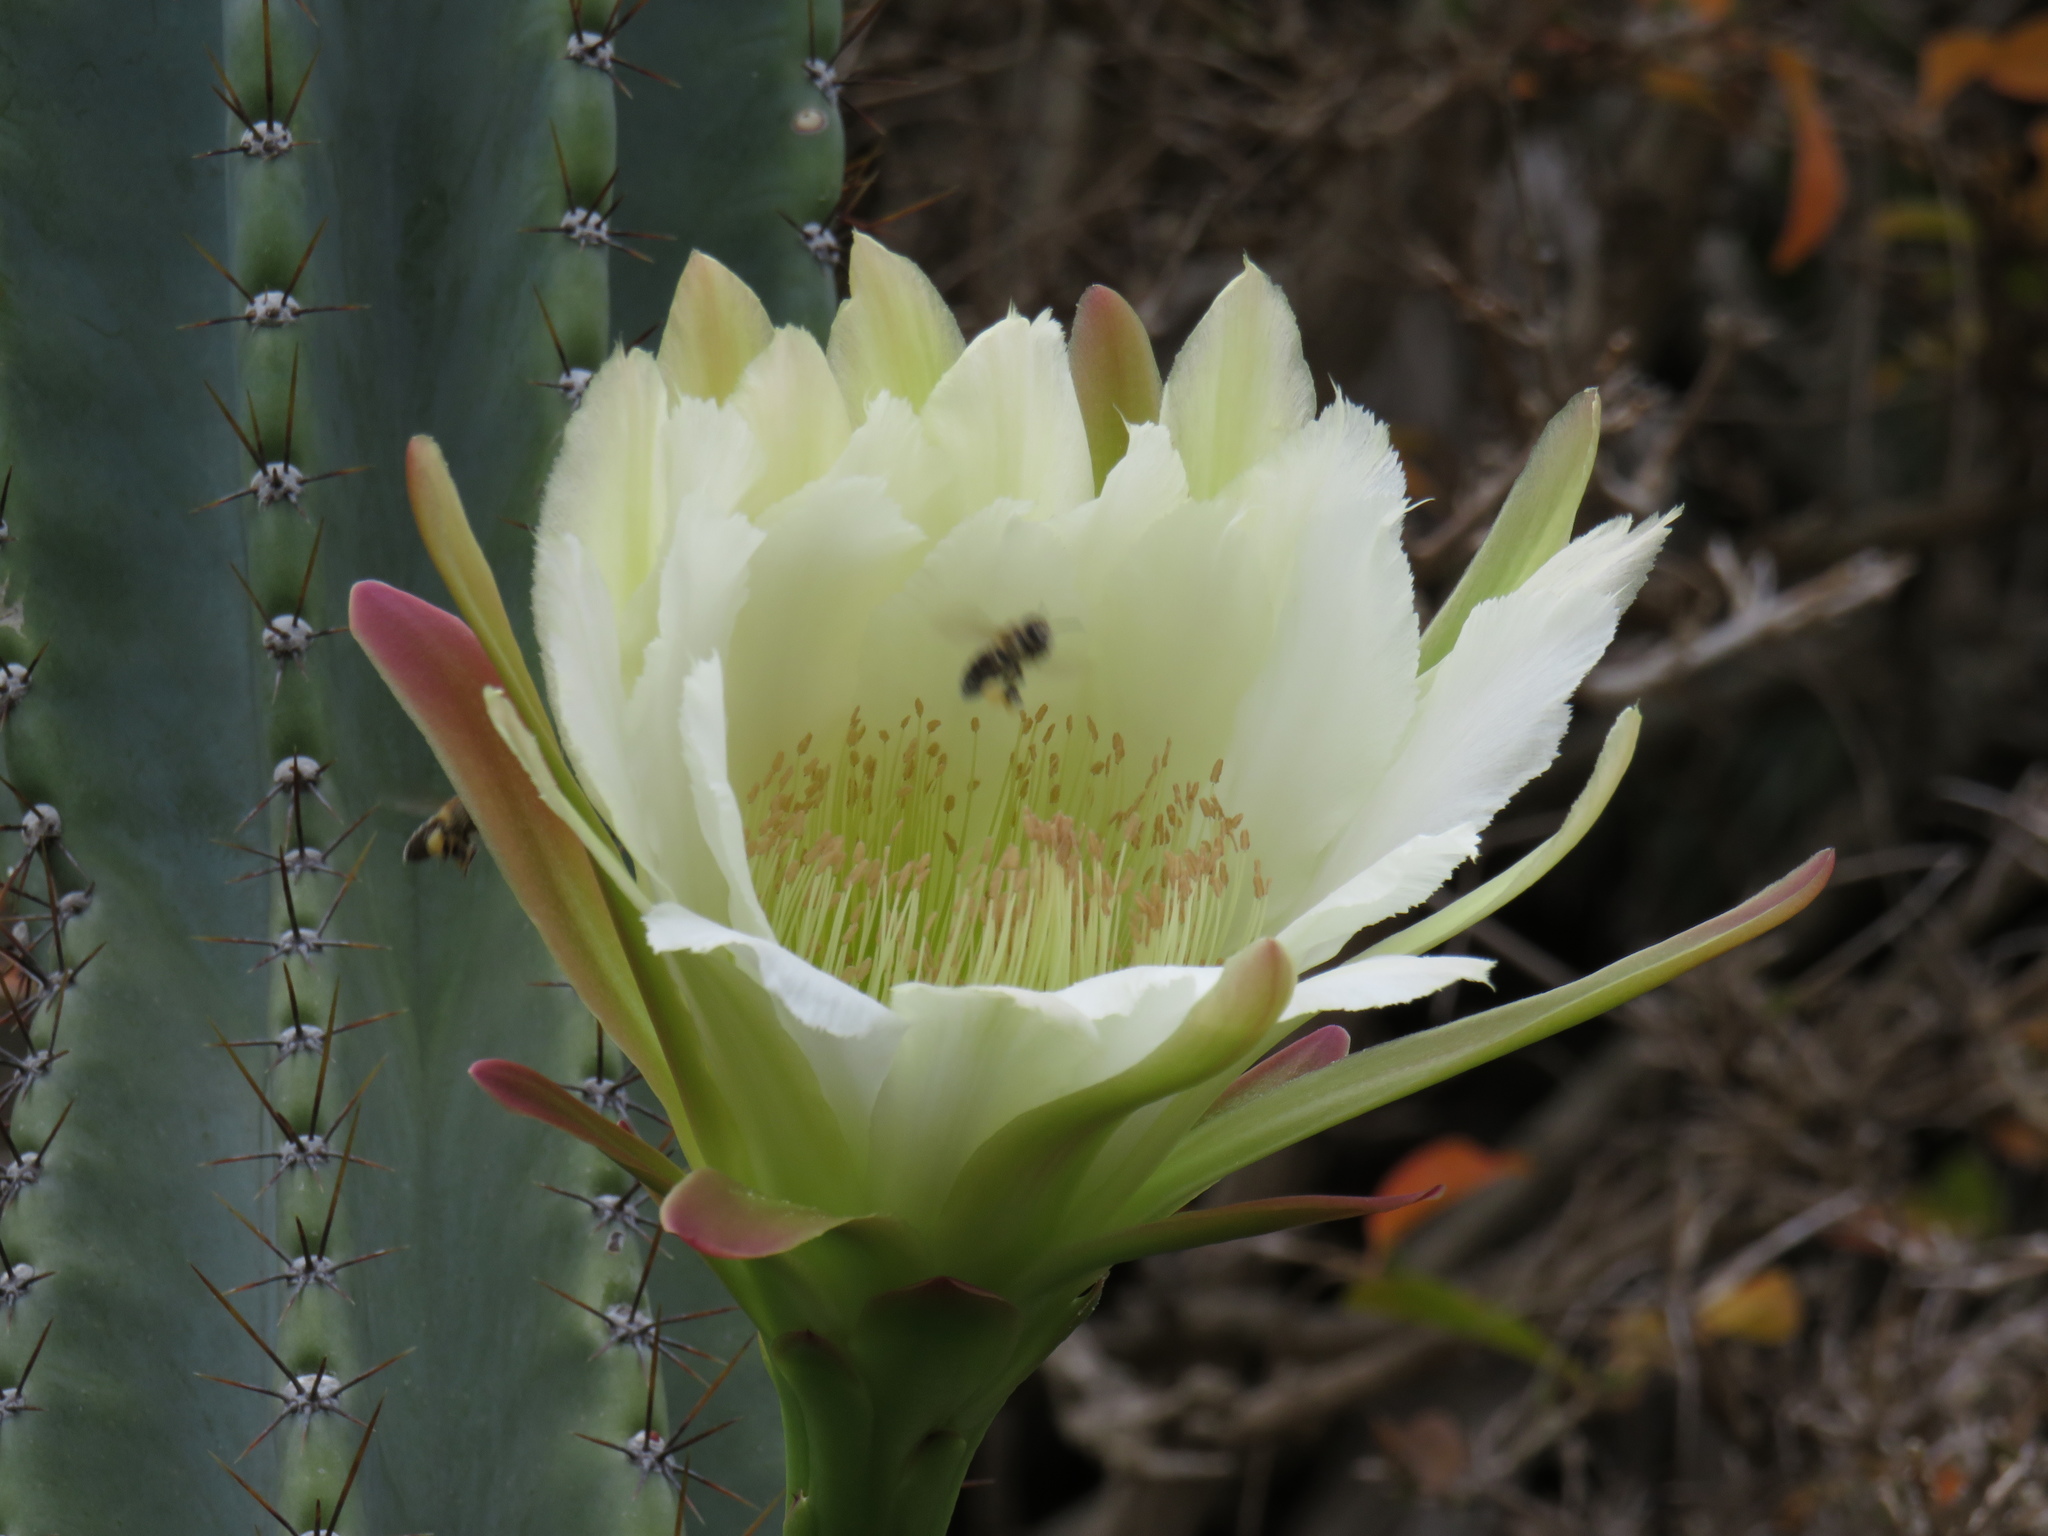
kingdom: Animalia
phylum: Arthropoda
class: Insecta
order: Hymenoptera
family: Apidae
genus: Apis
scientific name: Apis mellifera
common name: Honey bee
